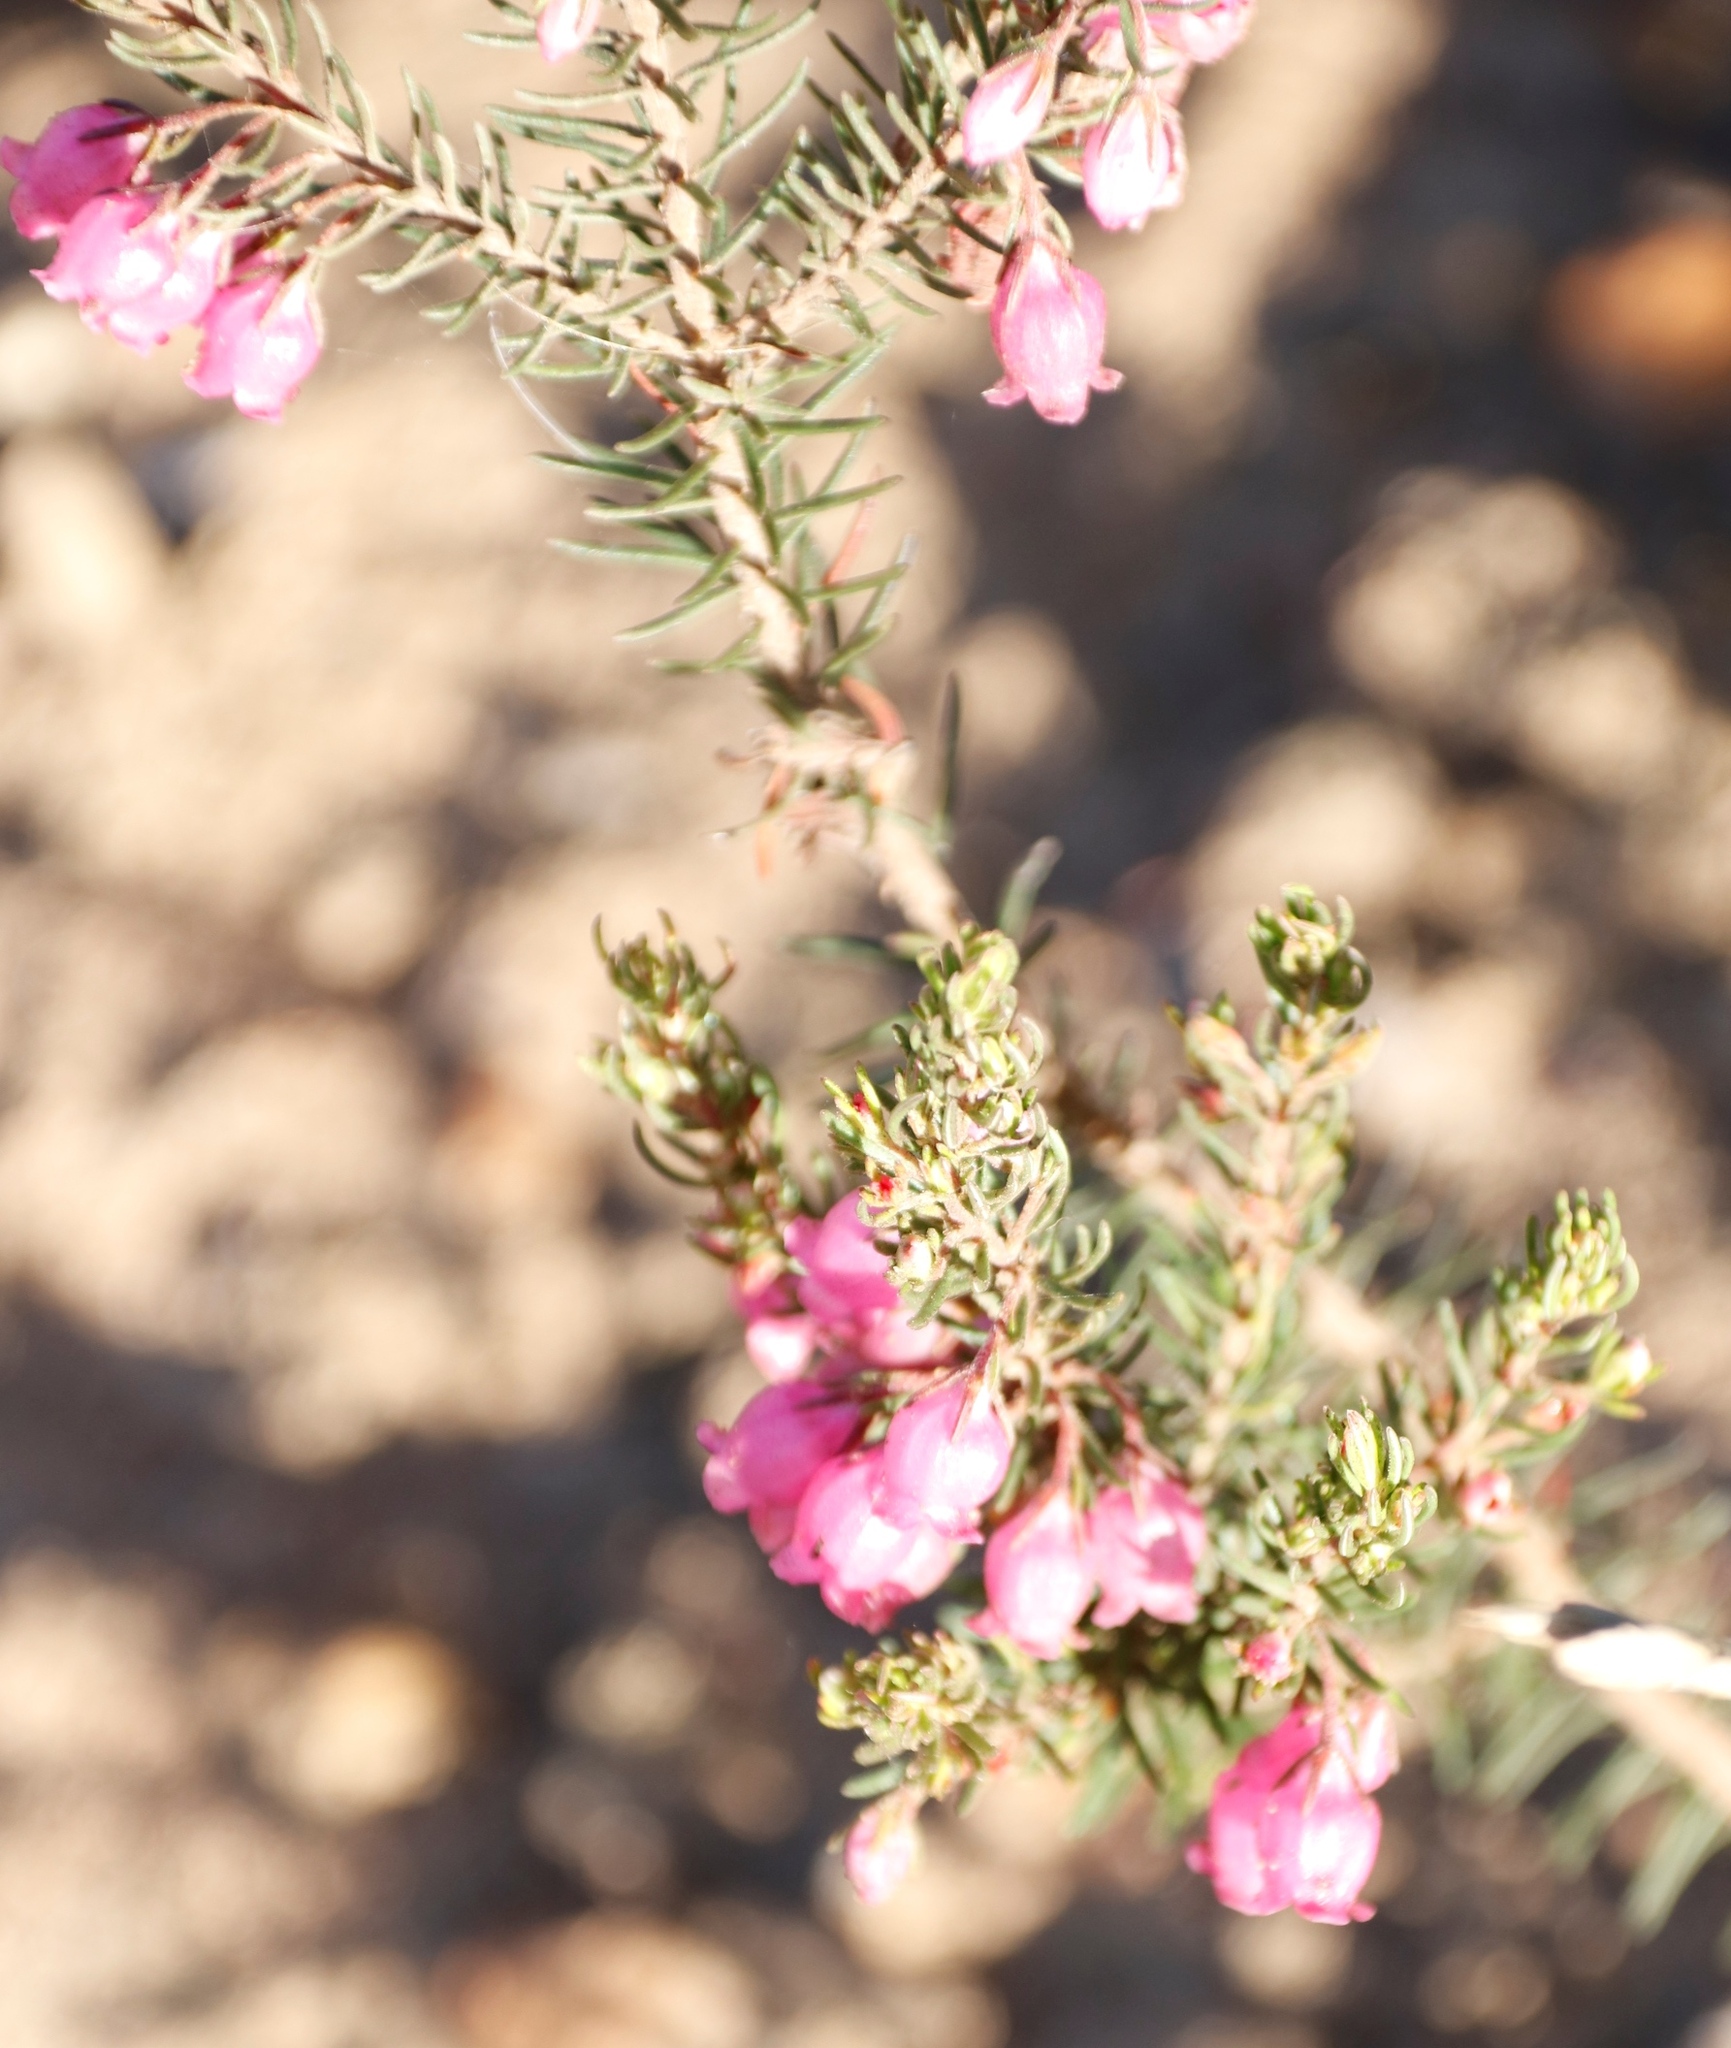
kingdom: Plantae
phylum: Tracheophyta
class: Magnoliopsida
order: Ericales
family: Ericaceae
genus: Erica
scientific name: Erica viscaria
